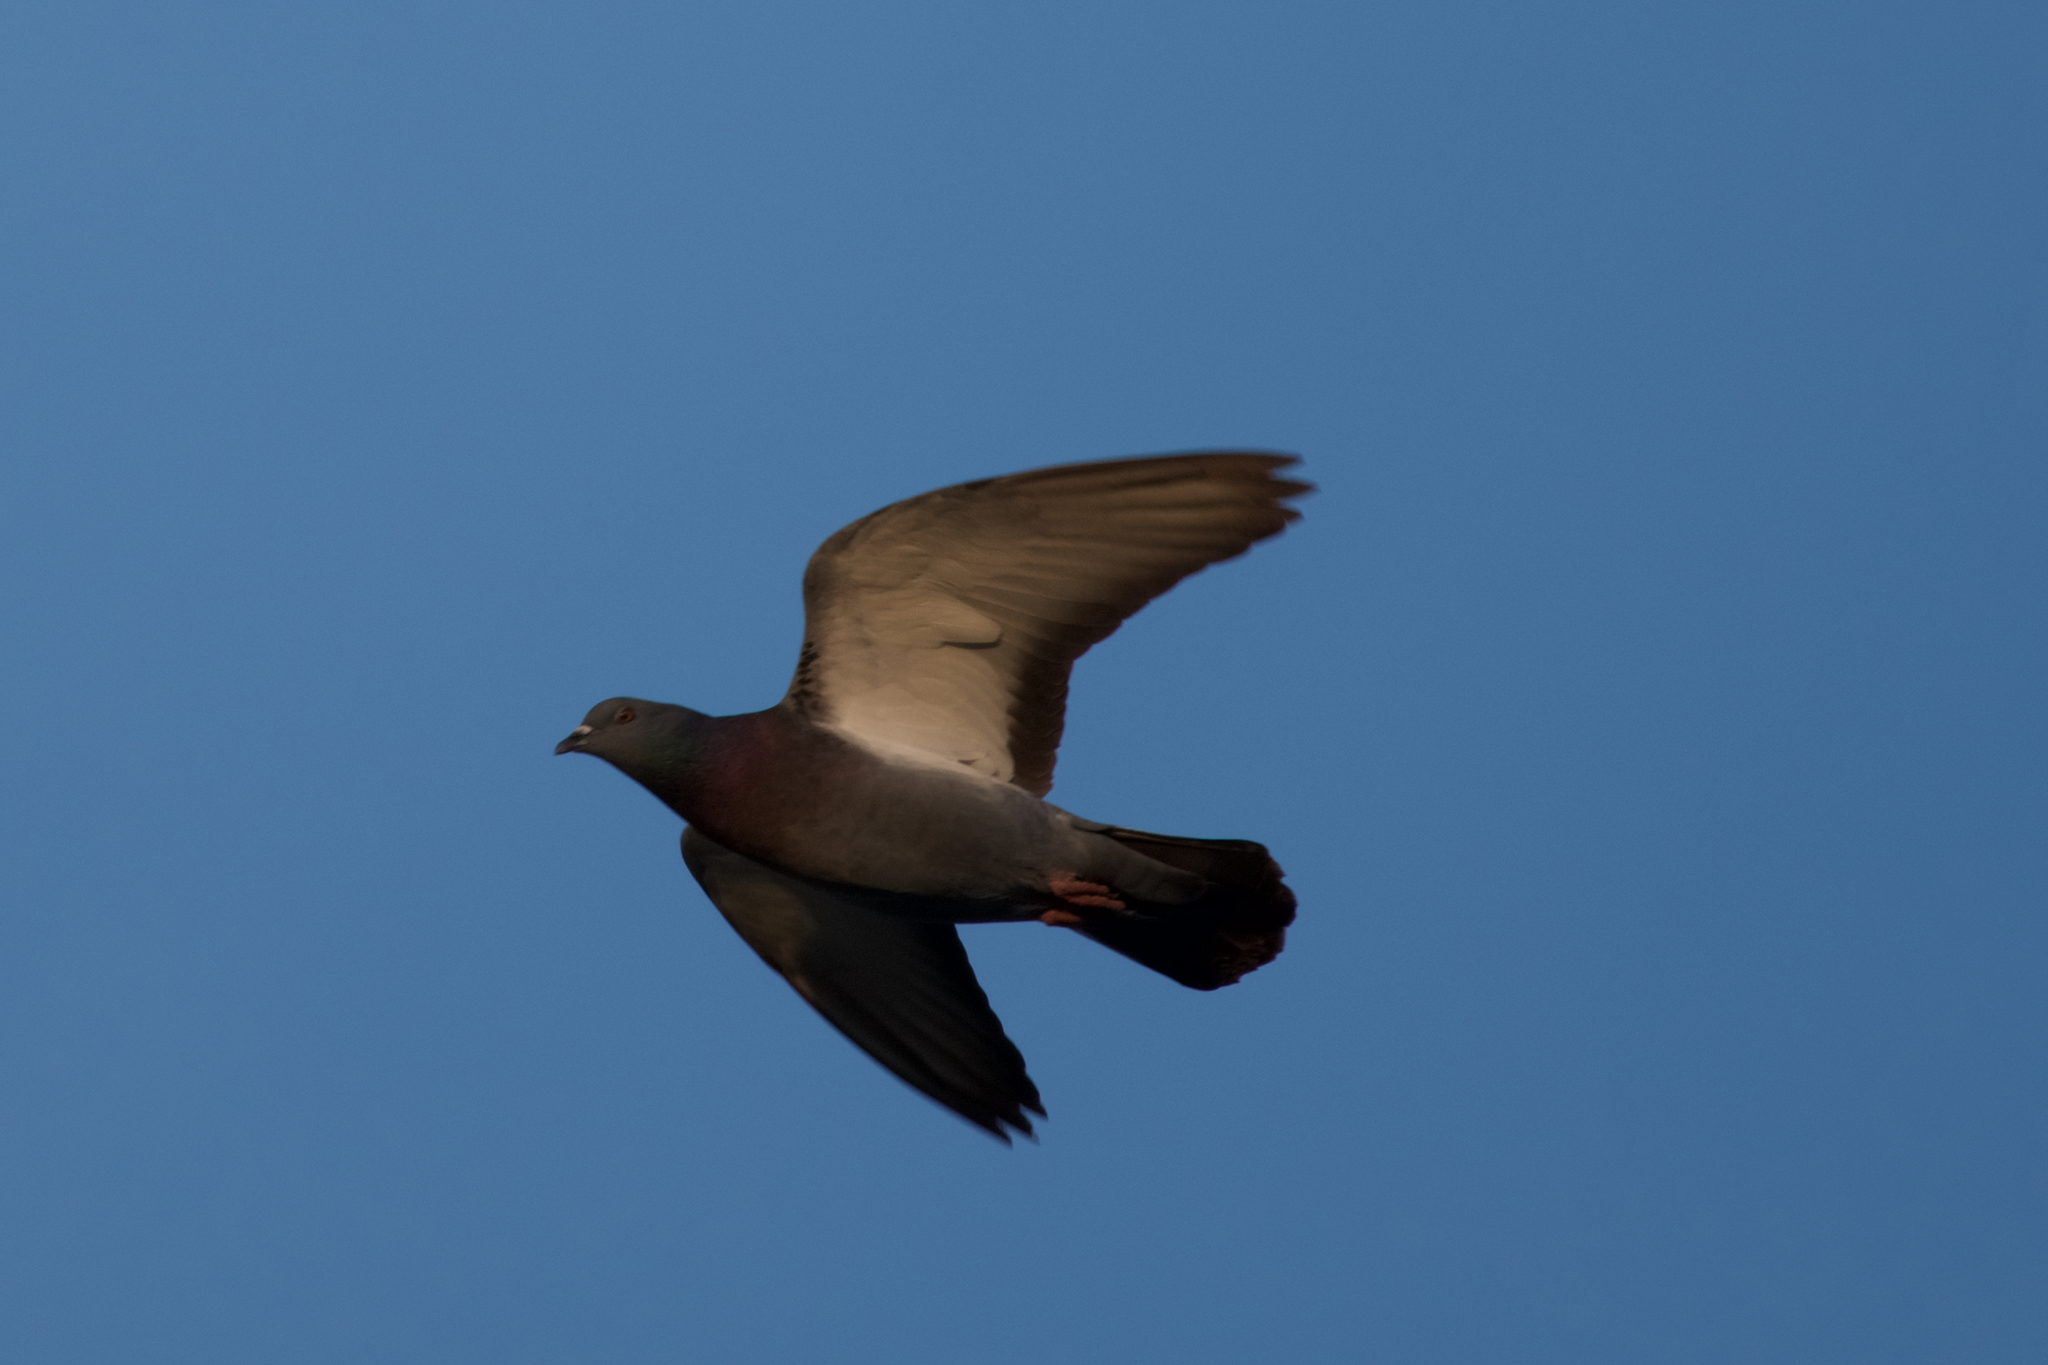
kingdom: Animalia
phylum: Chordata
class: Aves
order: Columbiformes
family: Columbidae
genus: Columba
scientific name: Columba livia
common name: Rock pigeon
